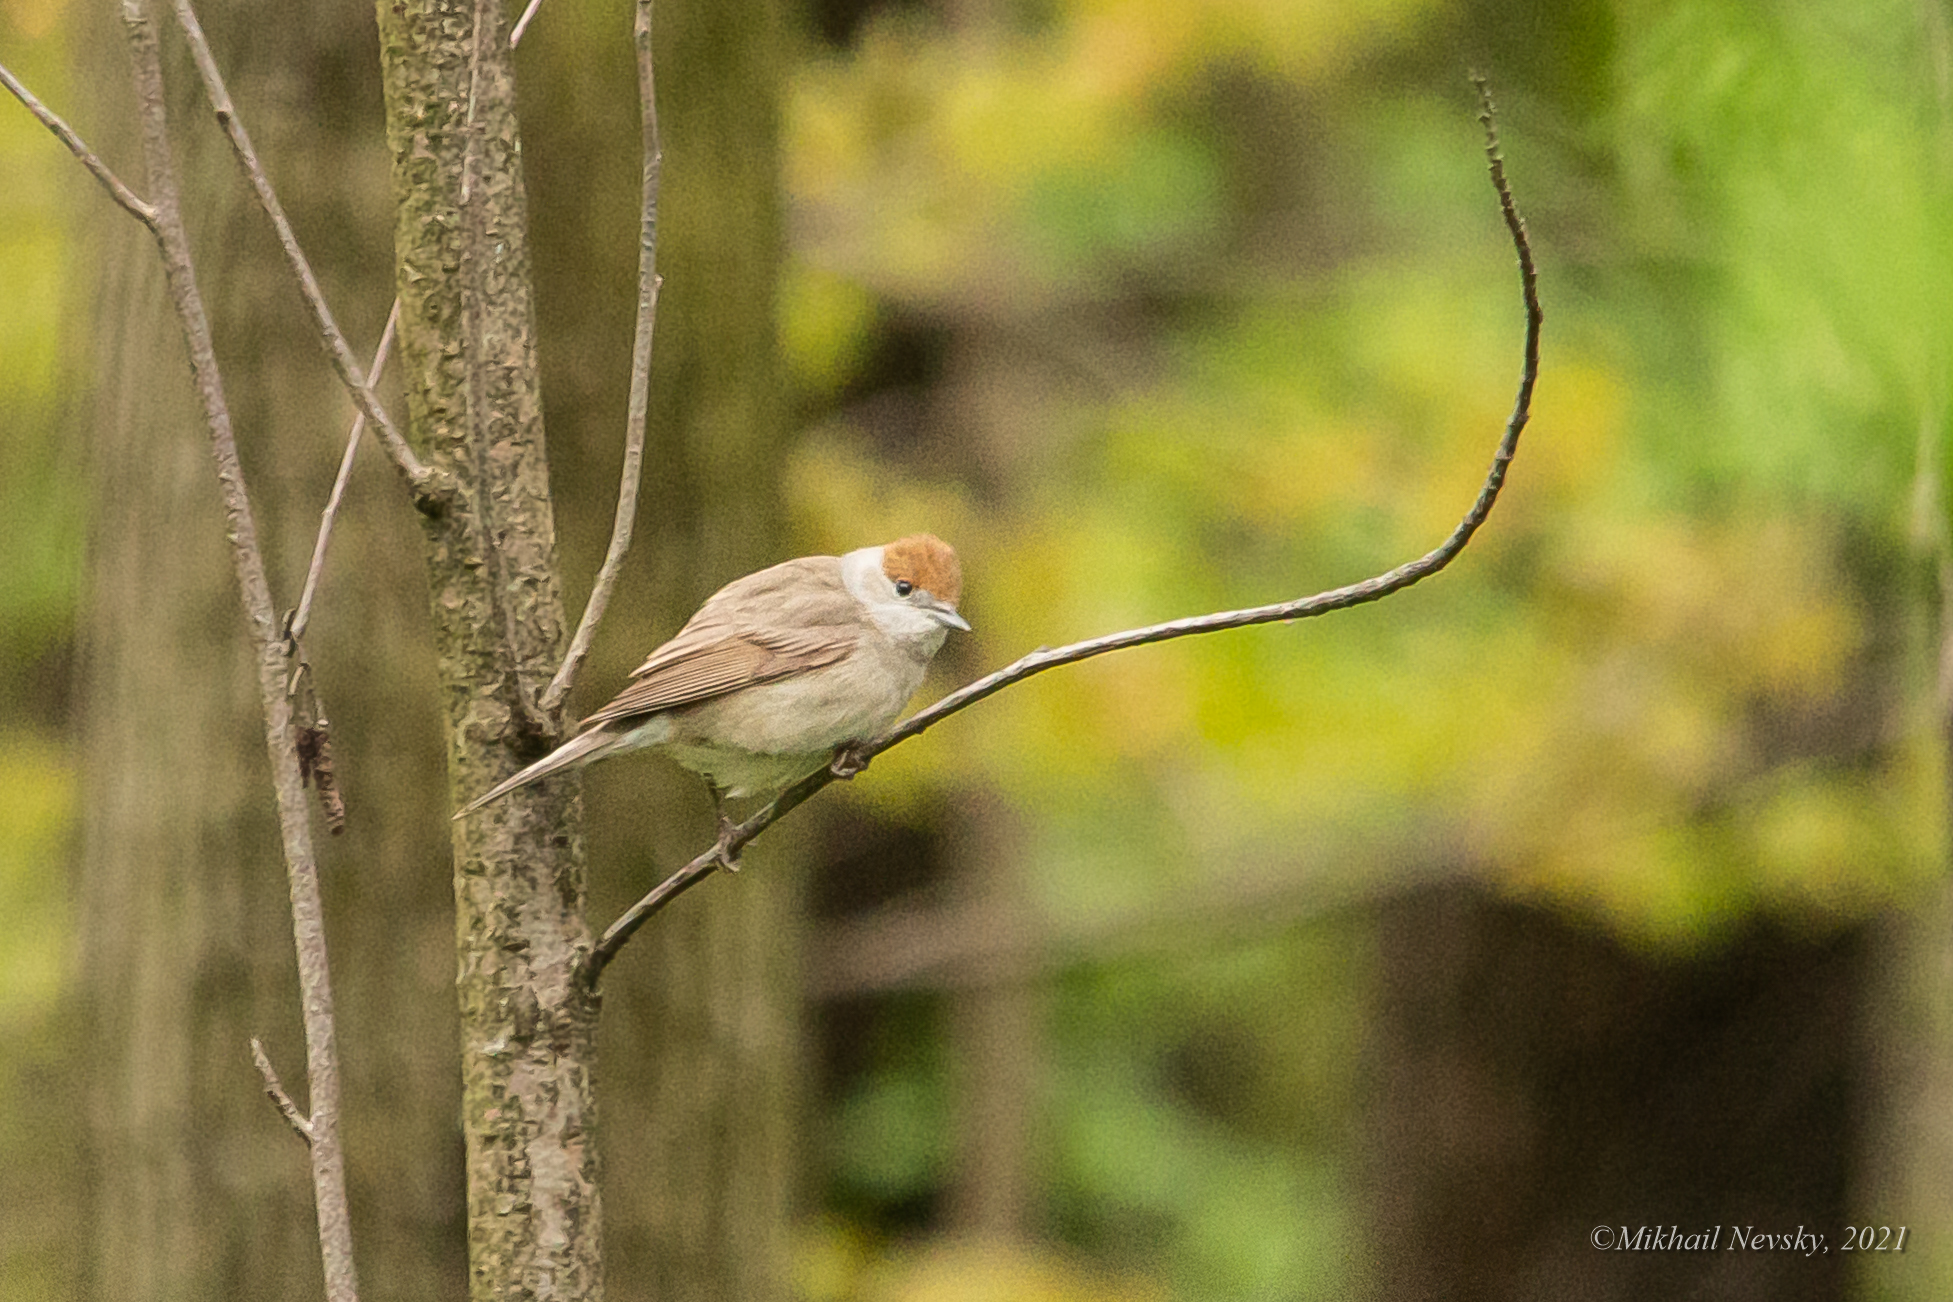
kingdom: Animalia
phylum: Chordata
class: Aves
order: Passeriformes
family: Sylviidae
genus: Sylvia
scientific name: Sylvia atricapilla
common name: Eurasian blackcap
